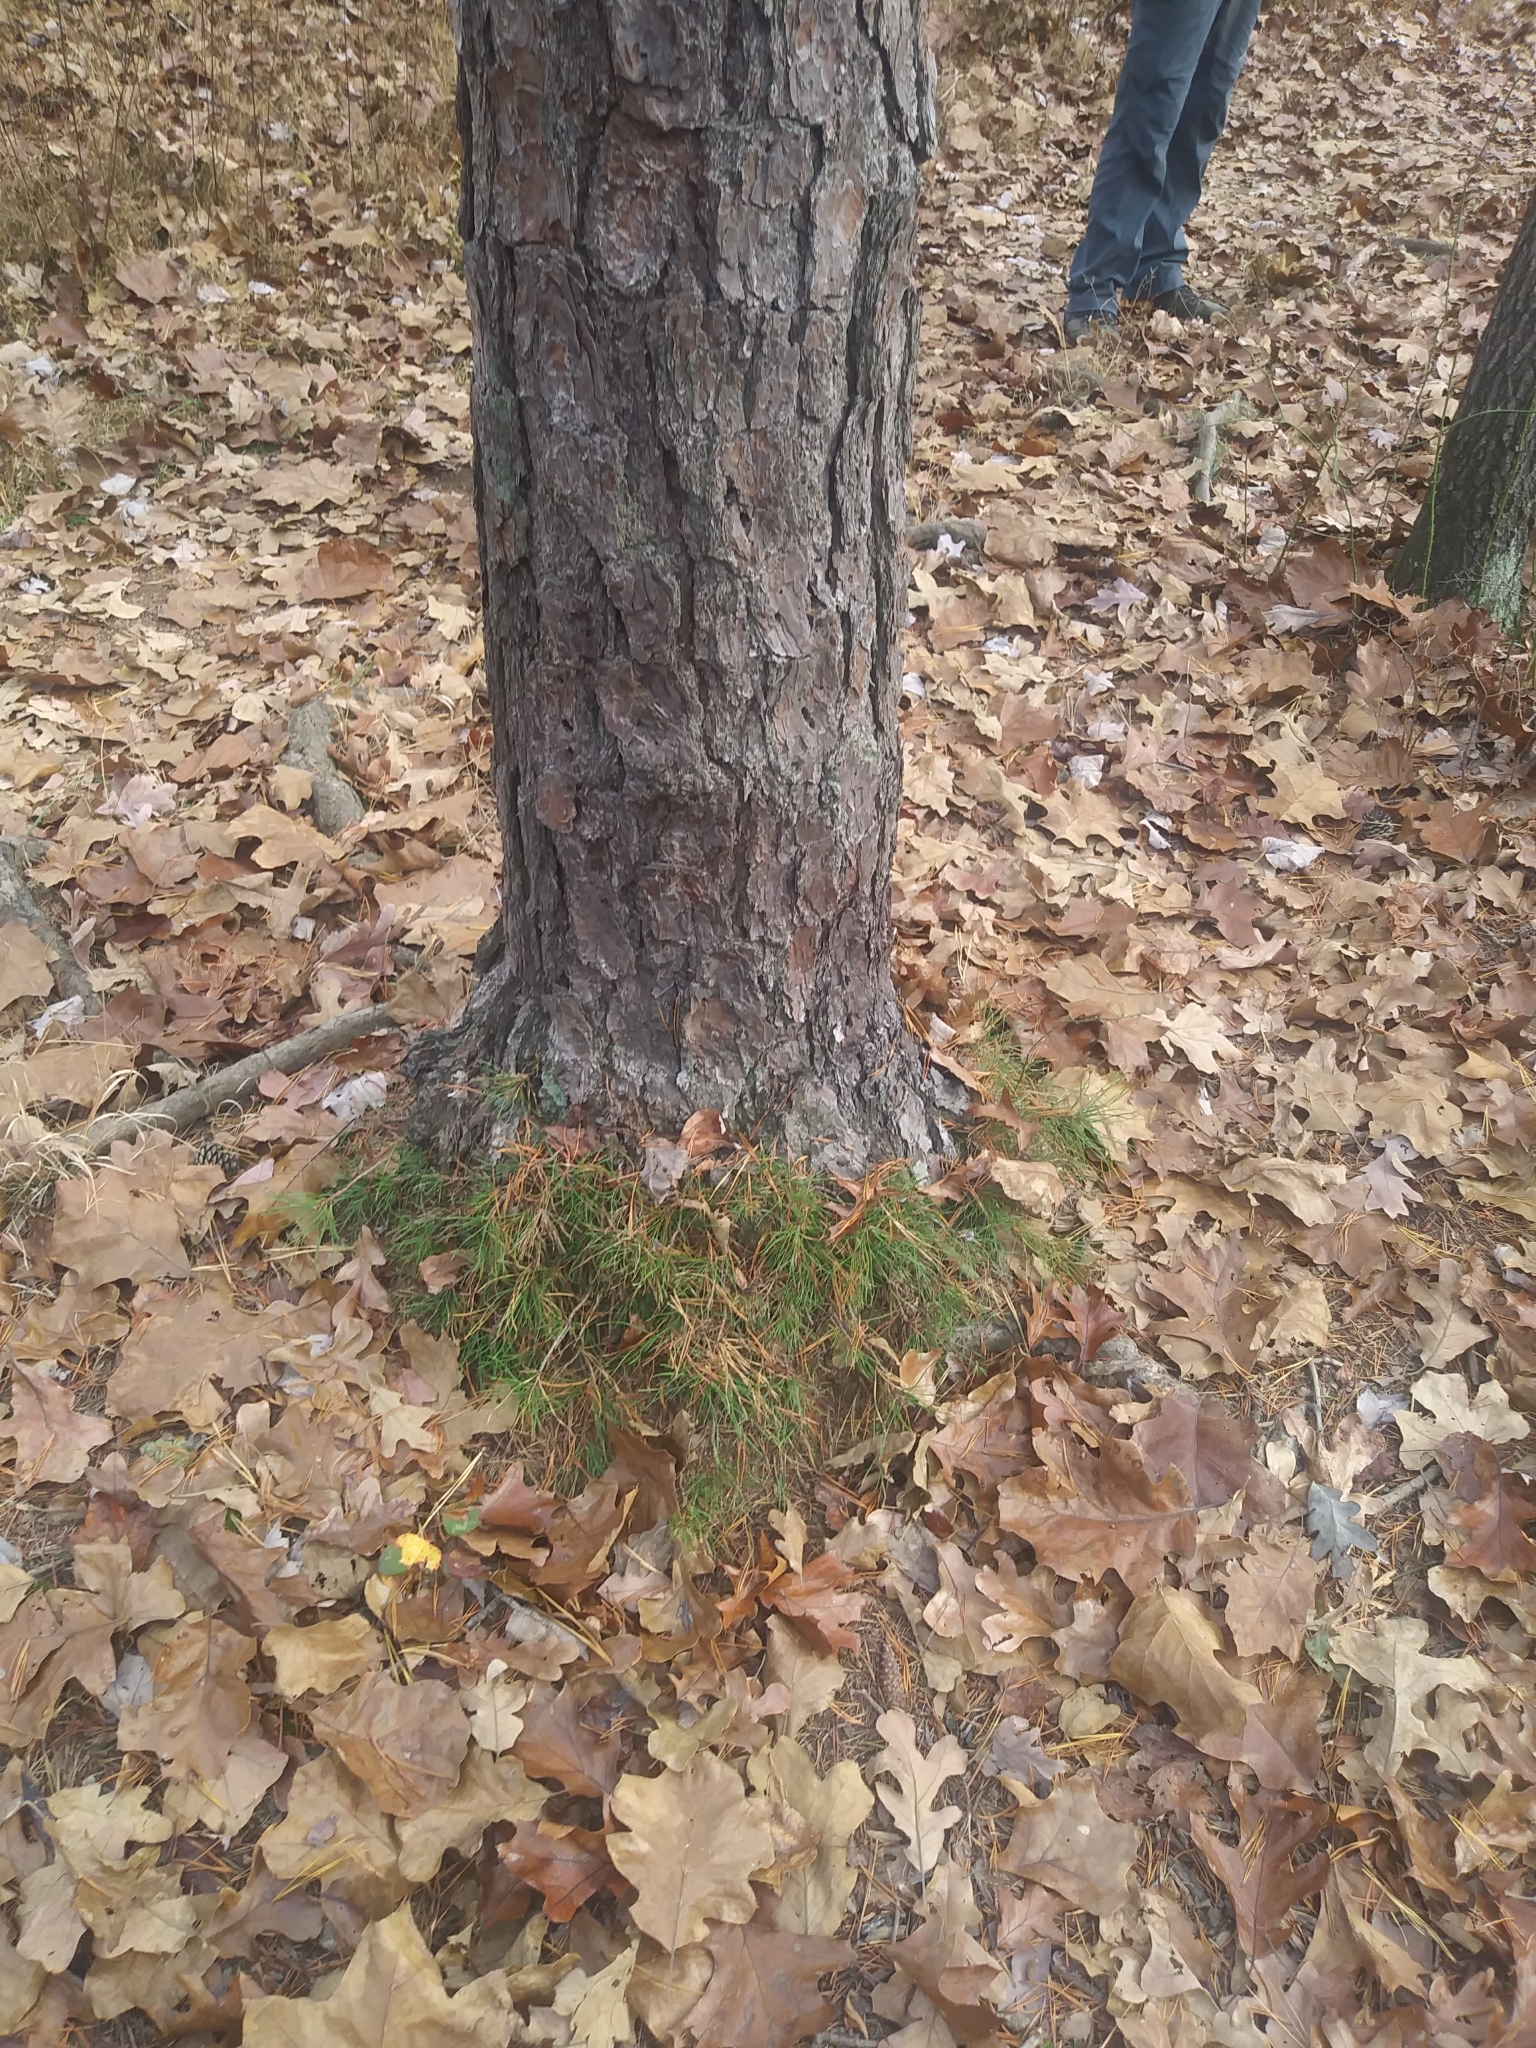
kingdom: Plantae
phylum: Tracheophyta
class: Pinopsida
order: Pinales
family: Pinaceae
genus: Pinus
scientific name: Pinus rigida
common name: Pitch pine
